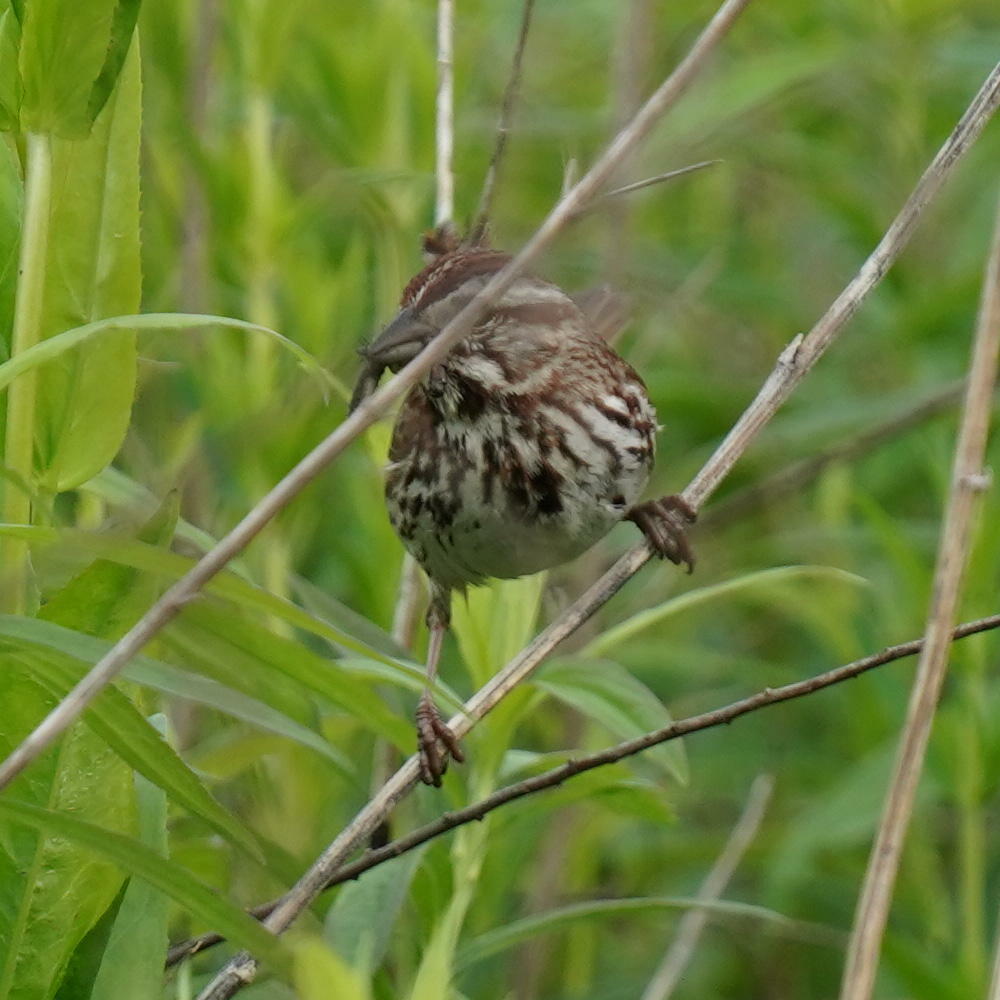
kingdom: Animalia
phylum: Chordata
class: Aves
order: Passeriformes
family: Passerellidae
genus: Melospiza
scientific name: Melospiza melodia
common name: Song sparrow
